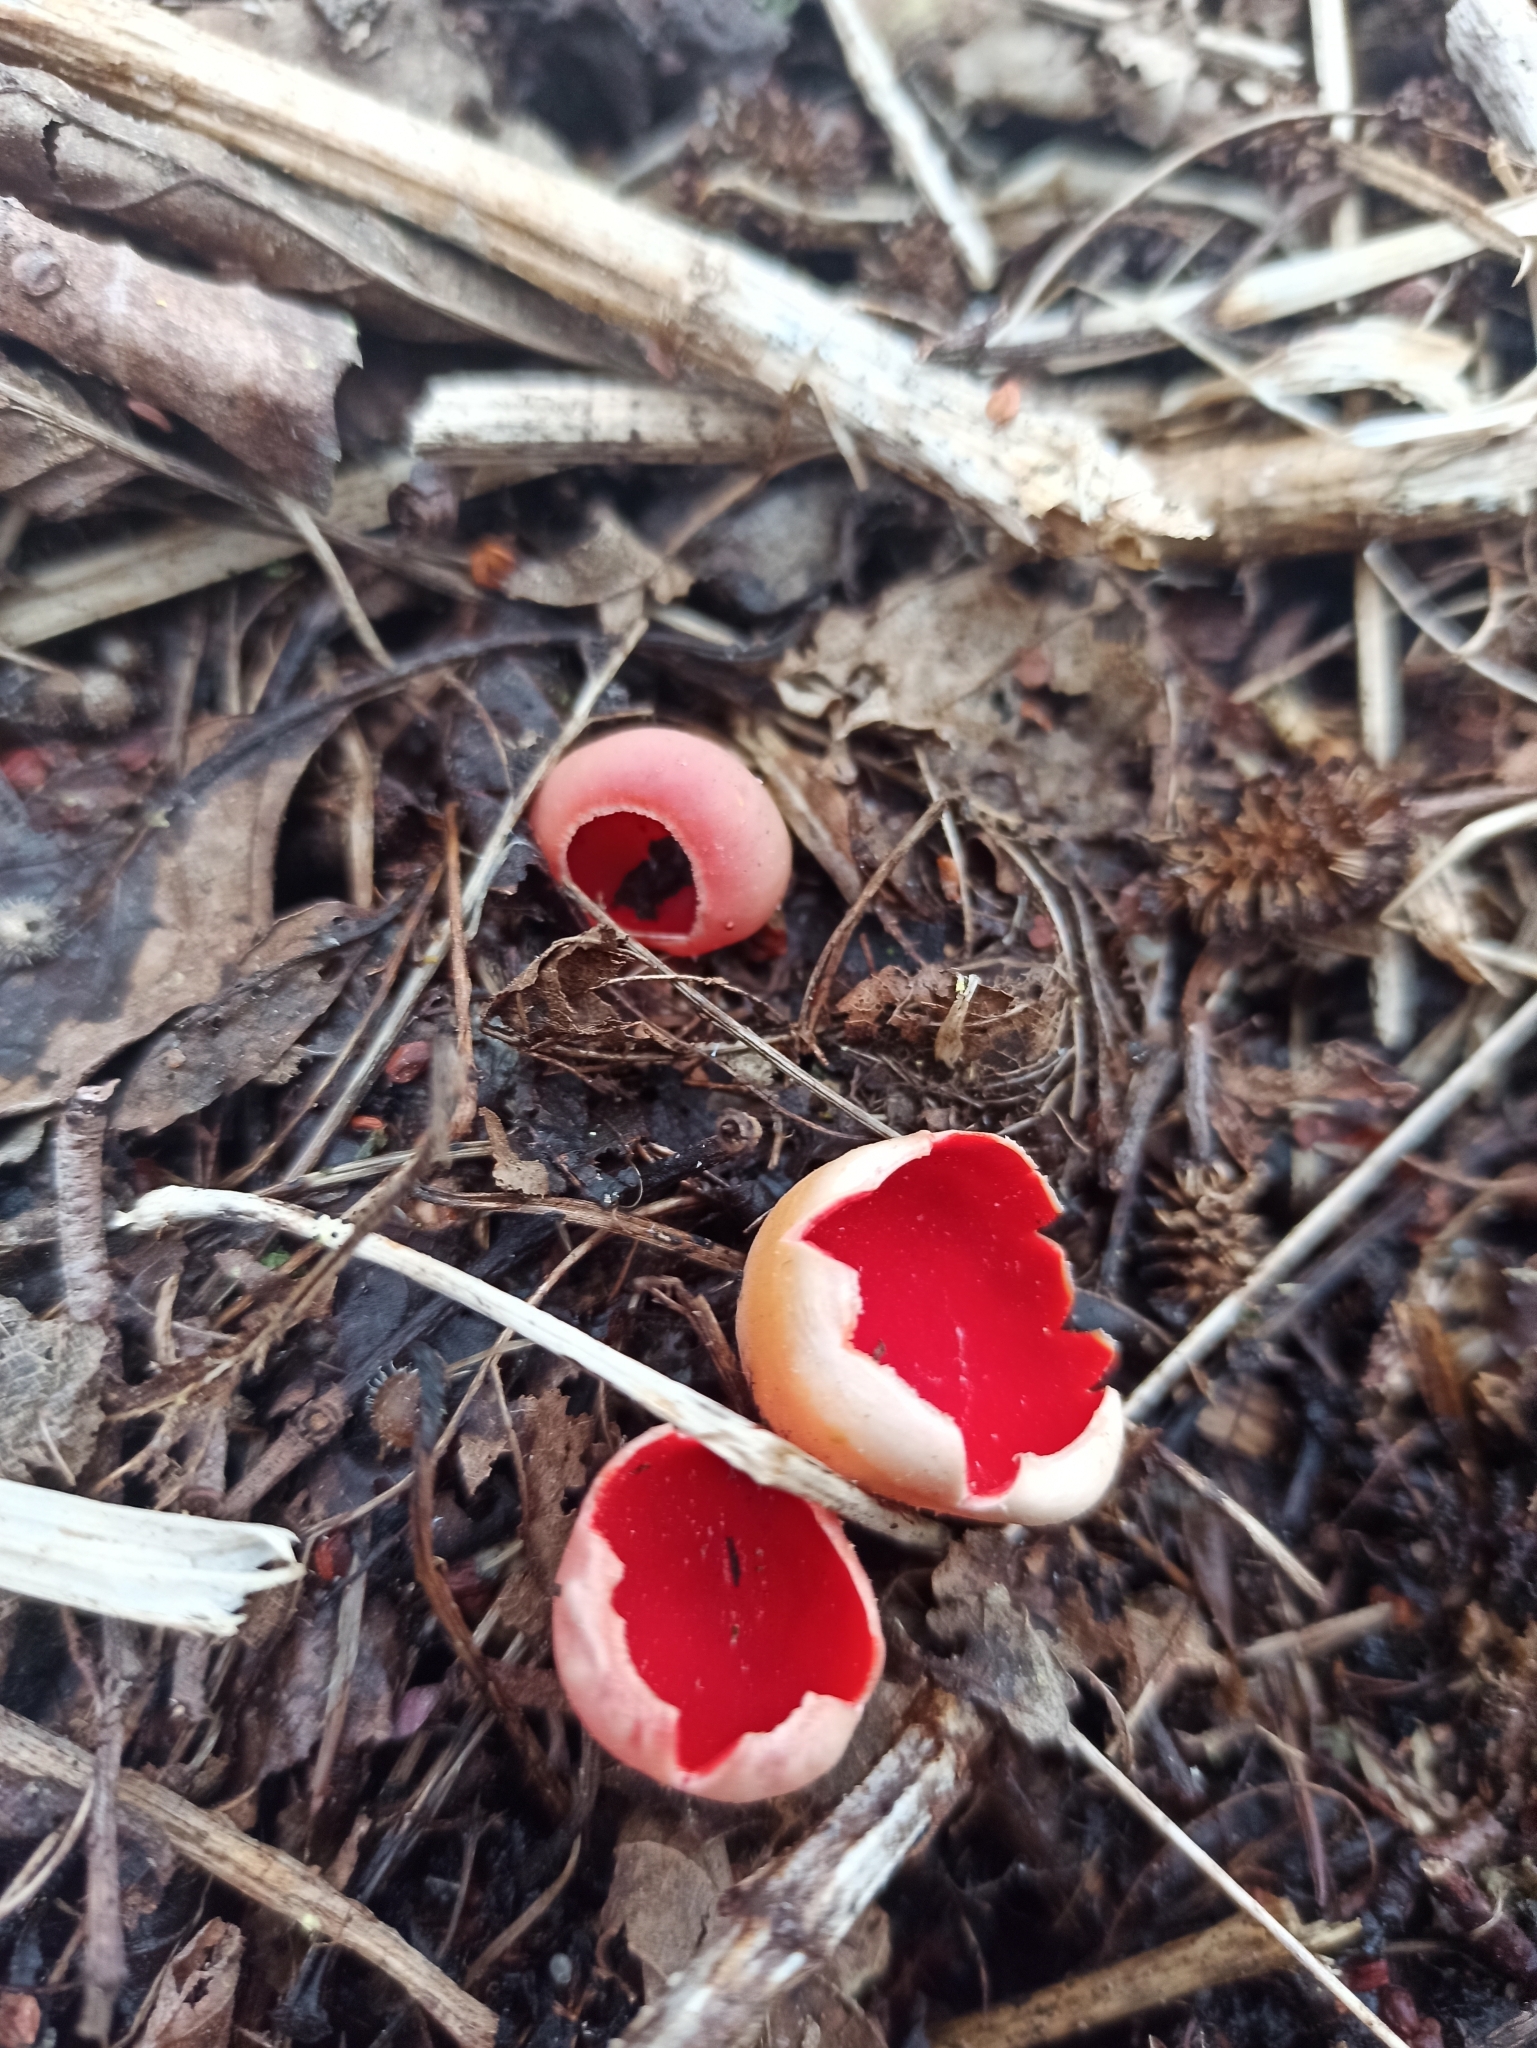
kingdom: Fungi
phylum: Ascomycota
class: Pezizomycetes
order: Pezizales
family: Sarcoscyphaceae
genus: Sarcoscypha
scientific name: Sarcoscypha
